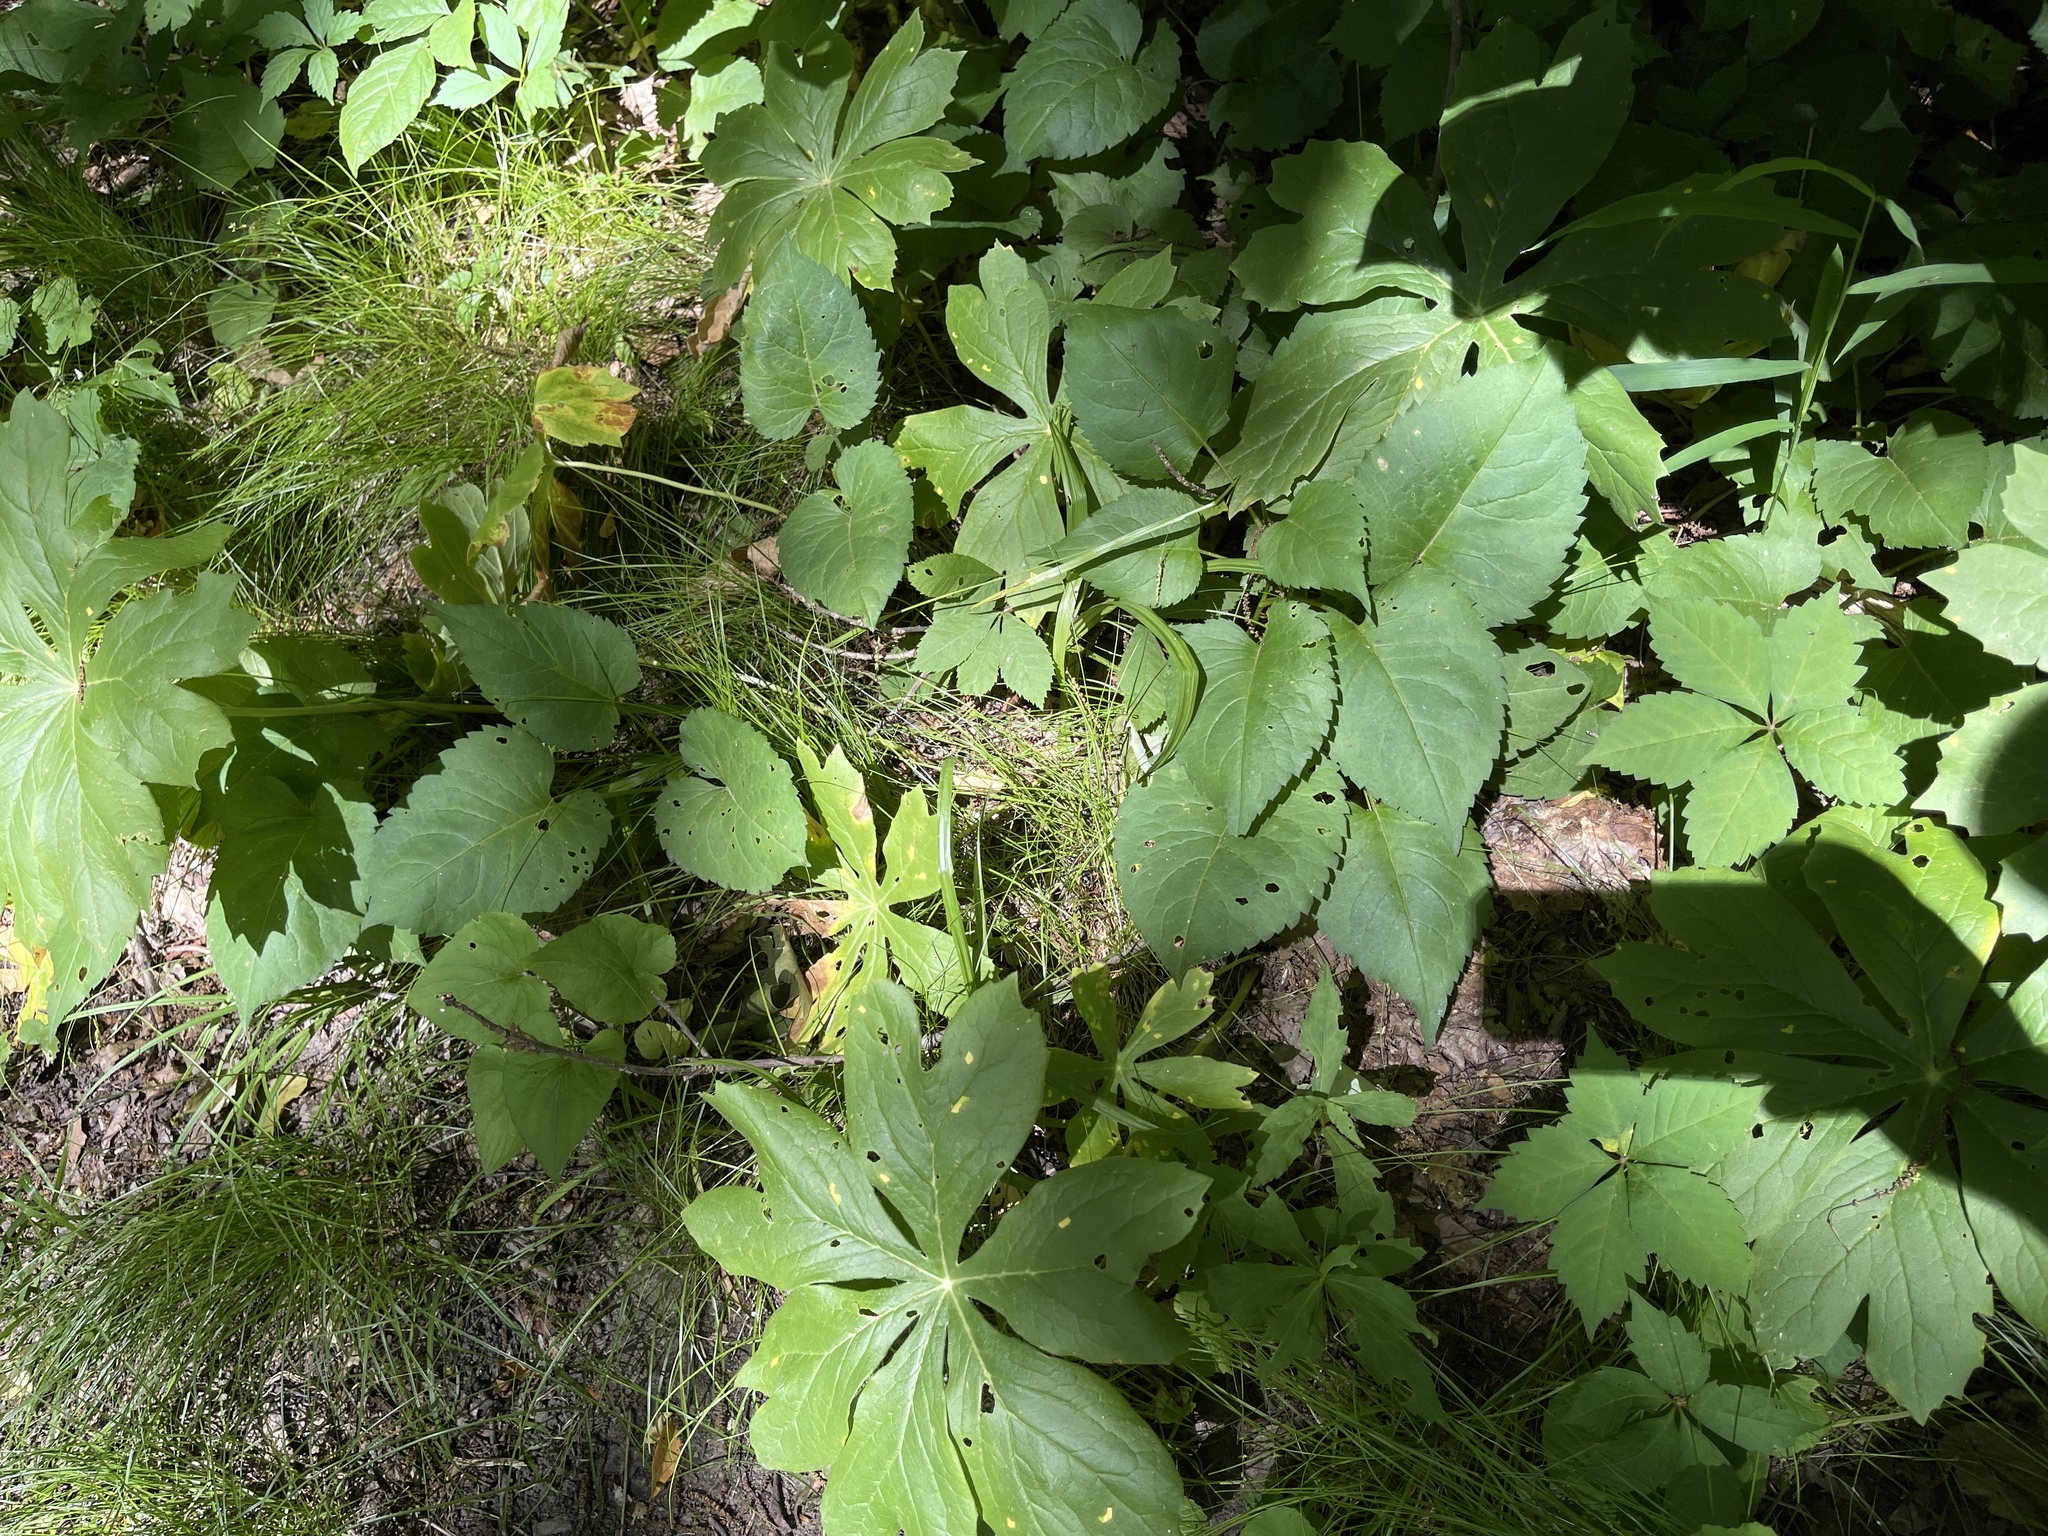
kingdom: Plantae
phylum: Tracheophyta
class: Magnoliopsida
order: Ranunculales
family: Berberidaceae
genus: Podophyllum
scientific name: Podophyllum peltatum
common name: Wild mandrake
